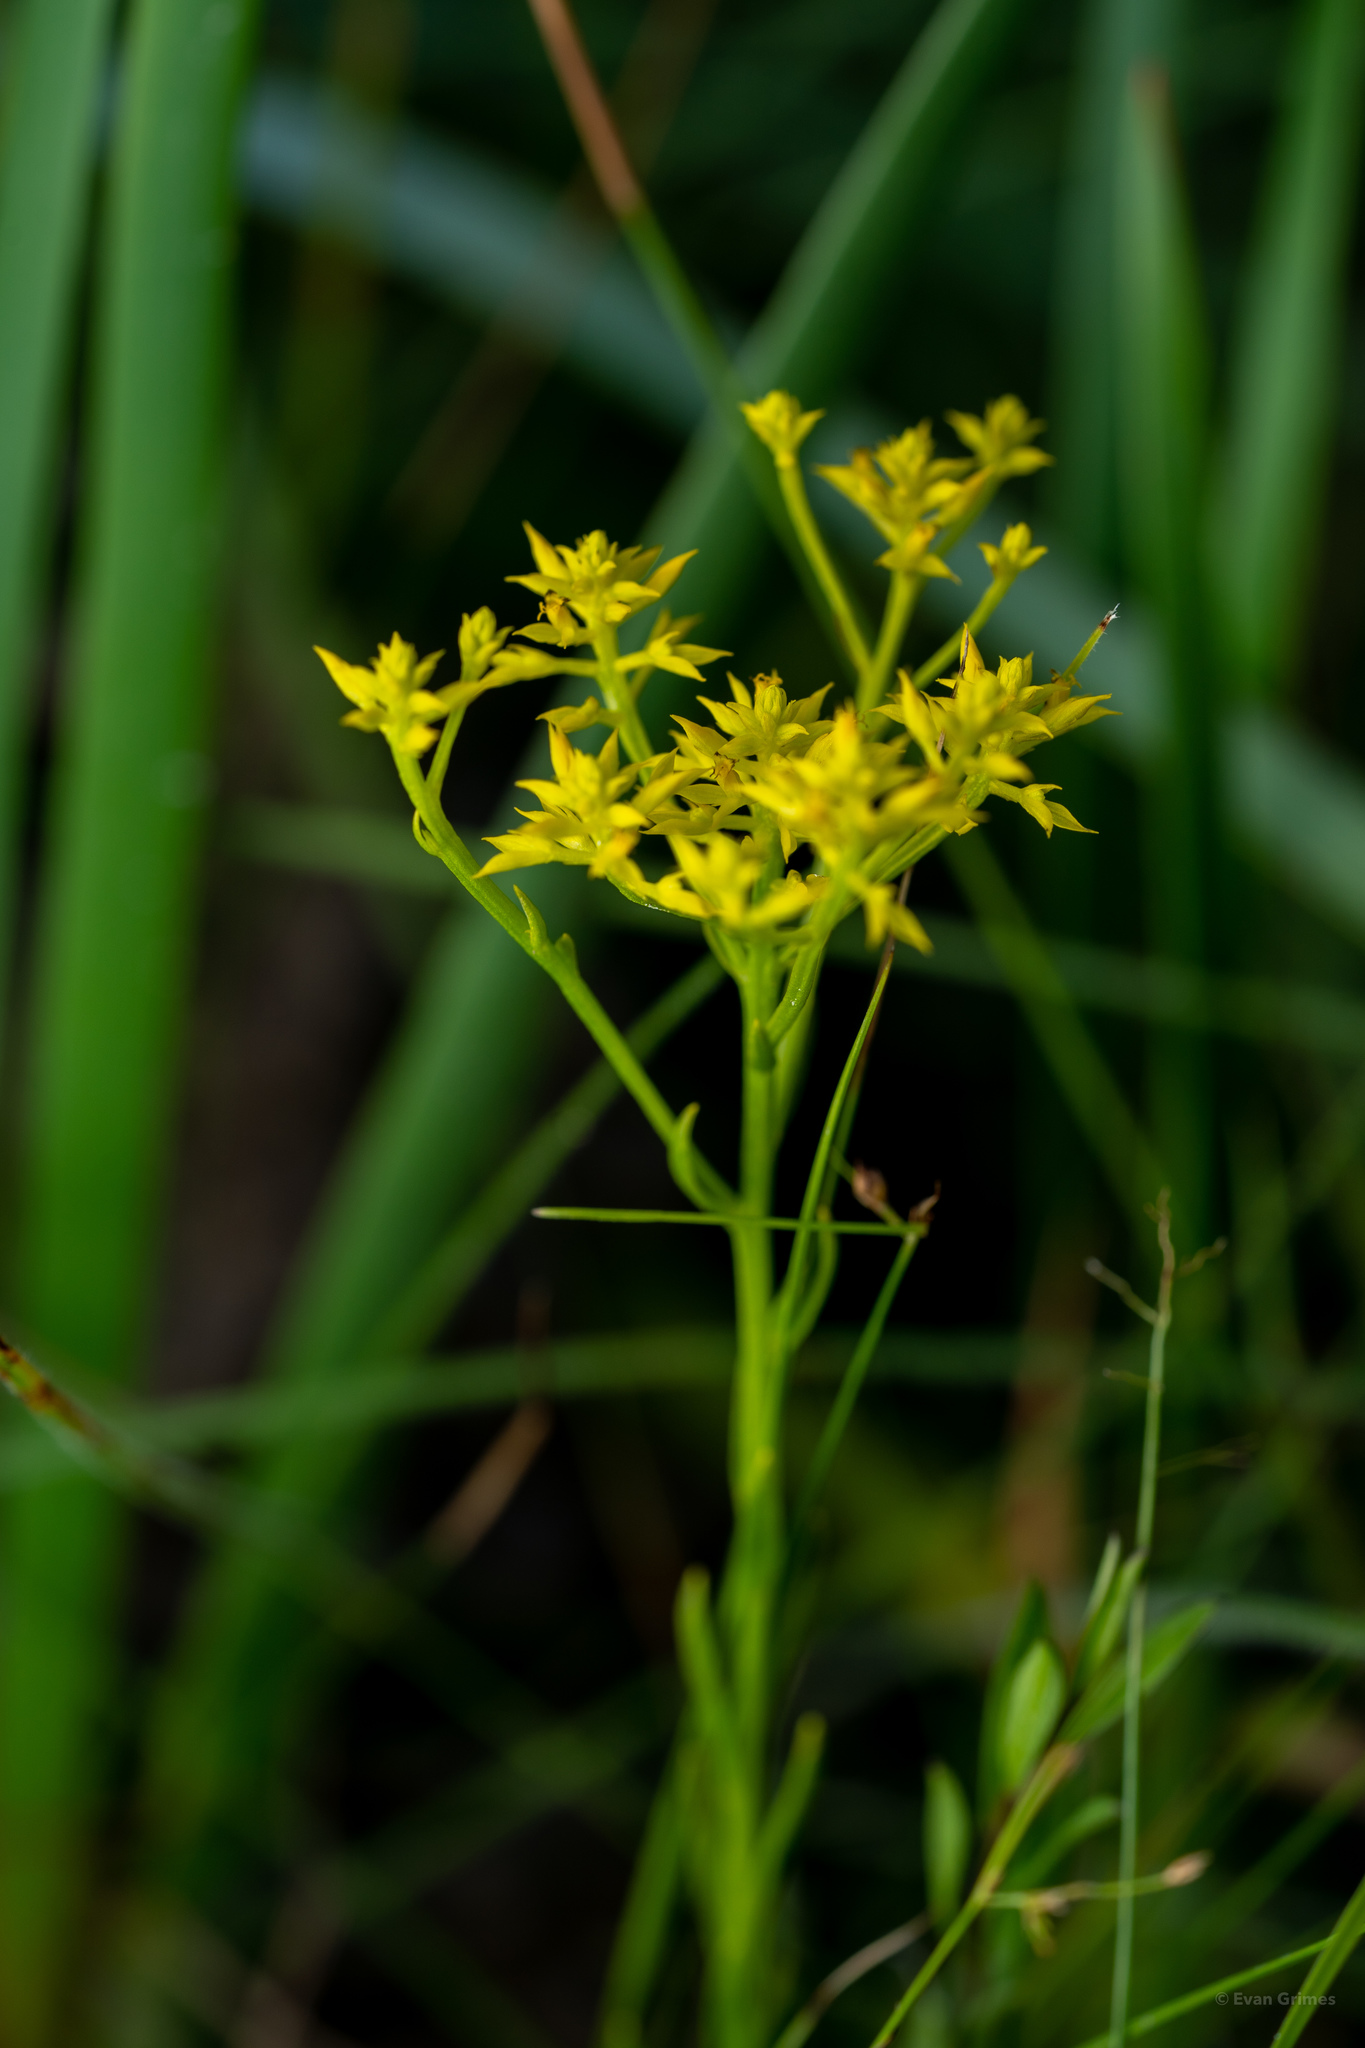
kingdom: Plantae
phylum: Tracheophyta
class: Magnoliopsida
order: Fabales
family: Polygalaceae
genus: Polygala
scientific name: Polygala ramosa
